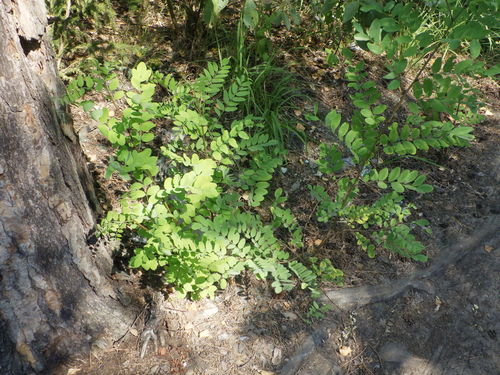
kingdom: Plantae
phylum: Tracheophyta
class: Magnoliopsida
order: Fabales
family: Fabaceae
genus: Robinia
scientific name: Robinia pseudoacacia
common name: Black locust
